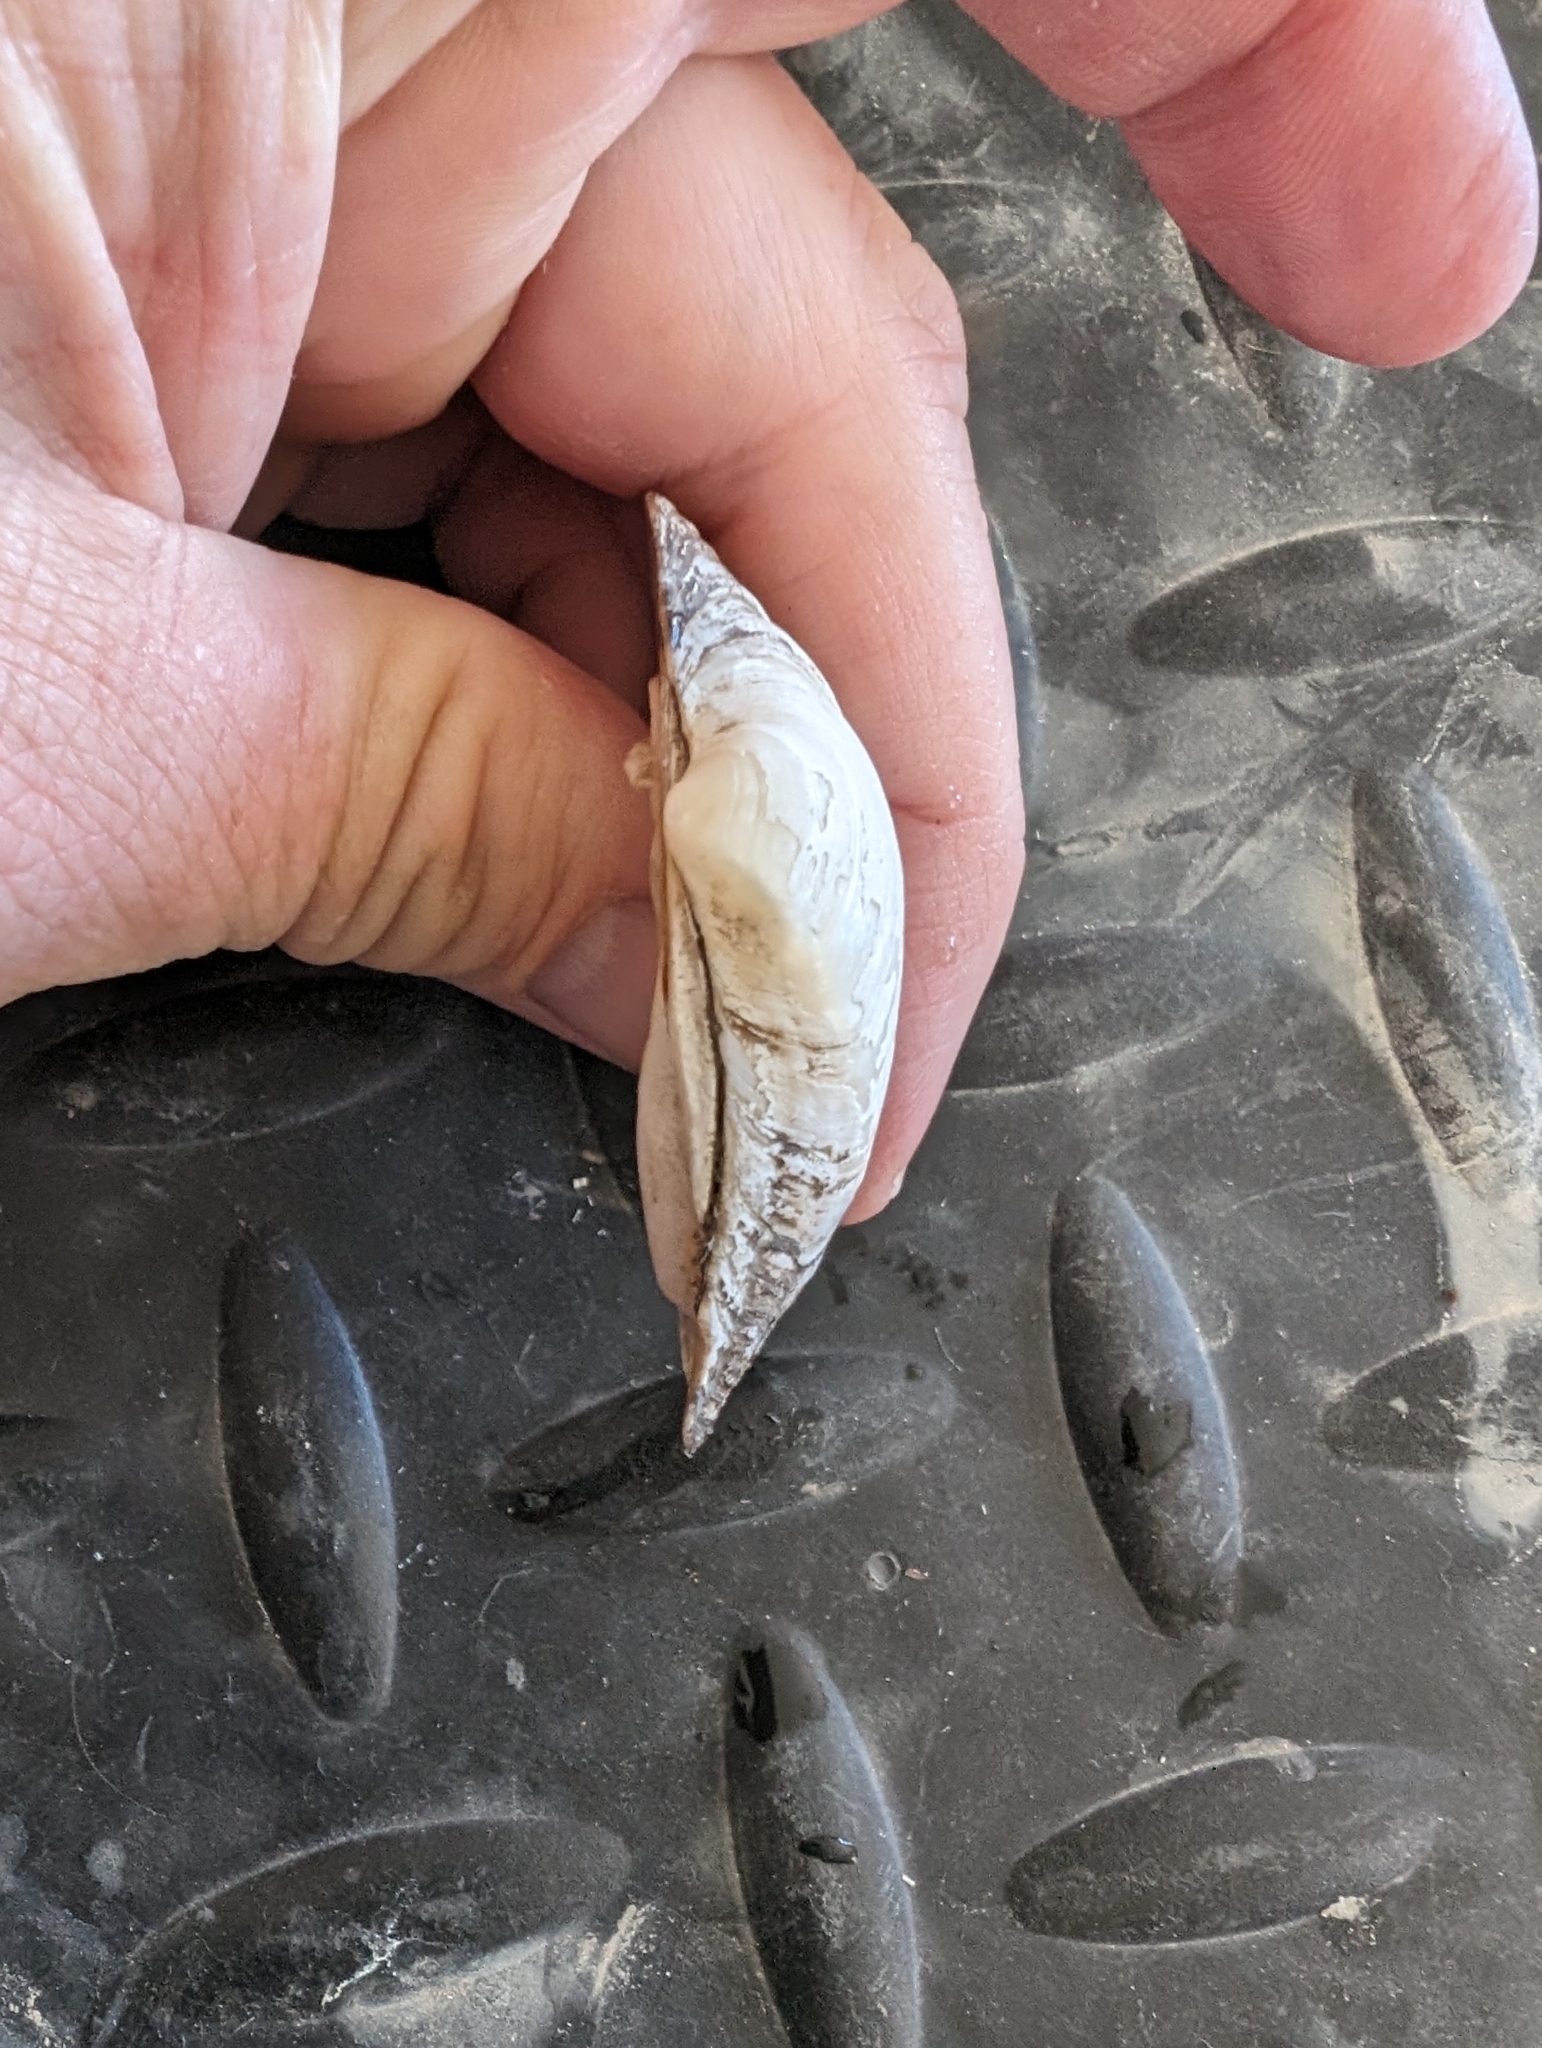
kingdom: Animalia
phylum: Mollusca
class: Bivalvia
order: Unionida
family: Unionidae
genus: Fusconaia
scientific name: Fusconaia flava
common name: Wabash pigtoe
